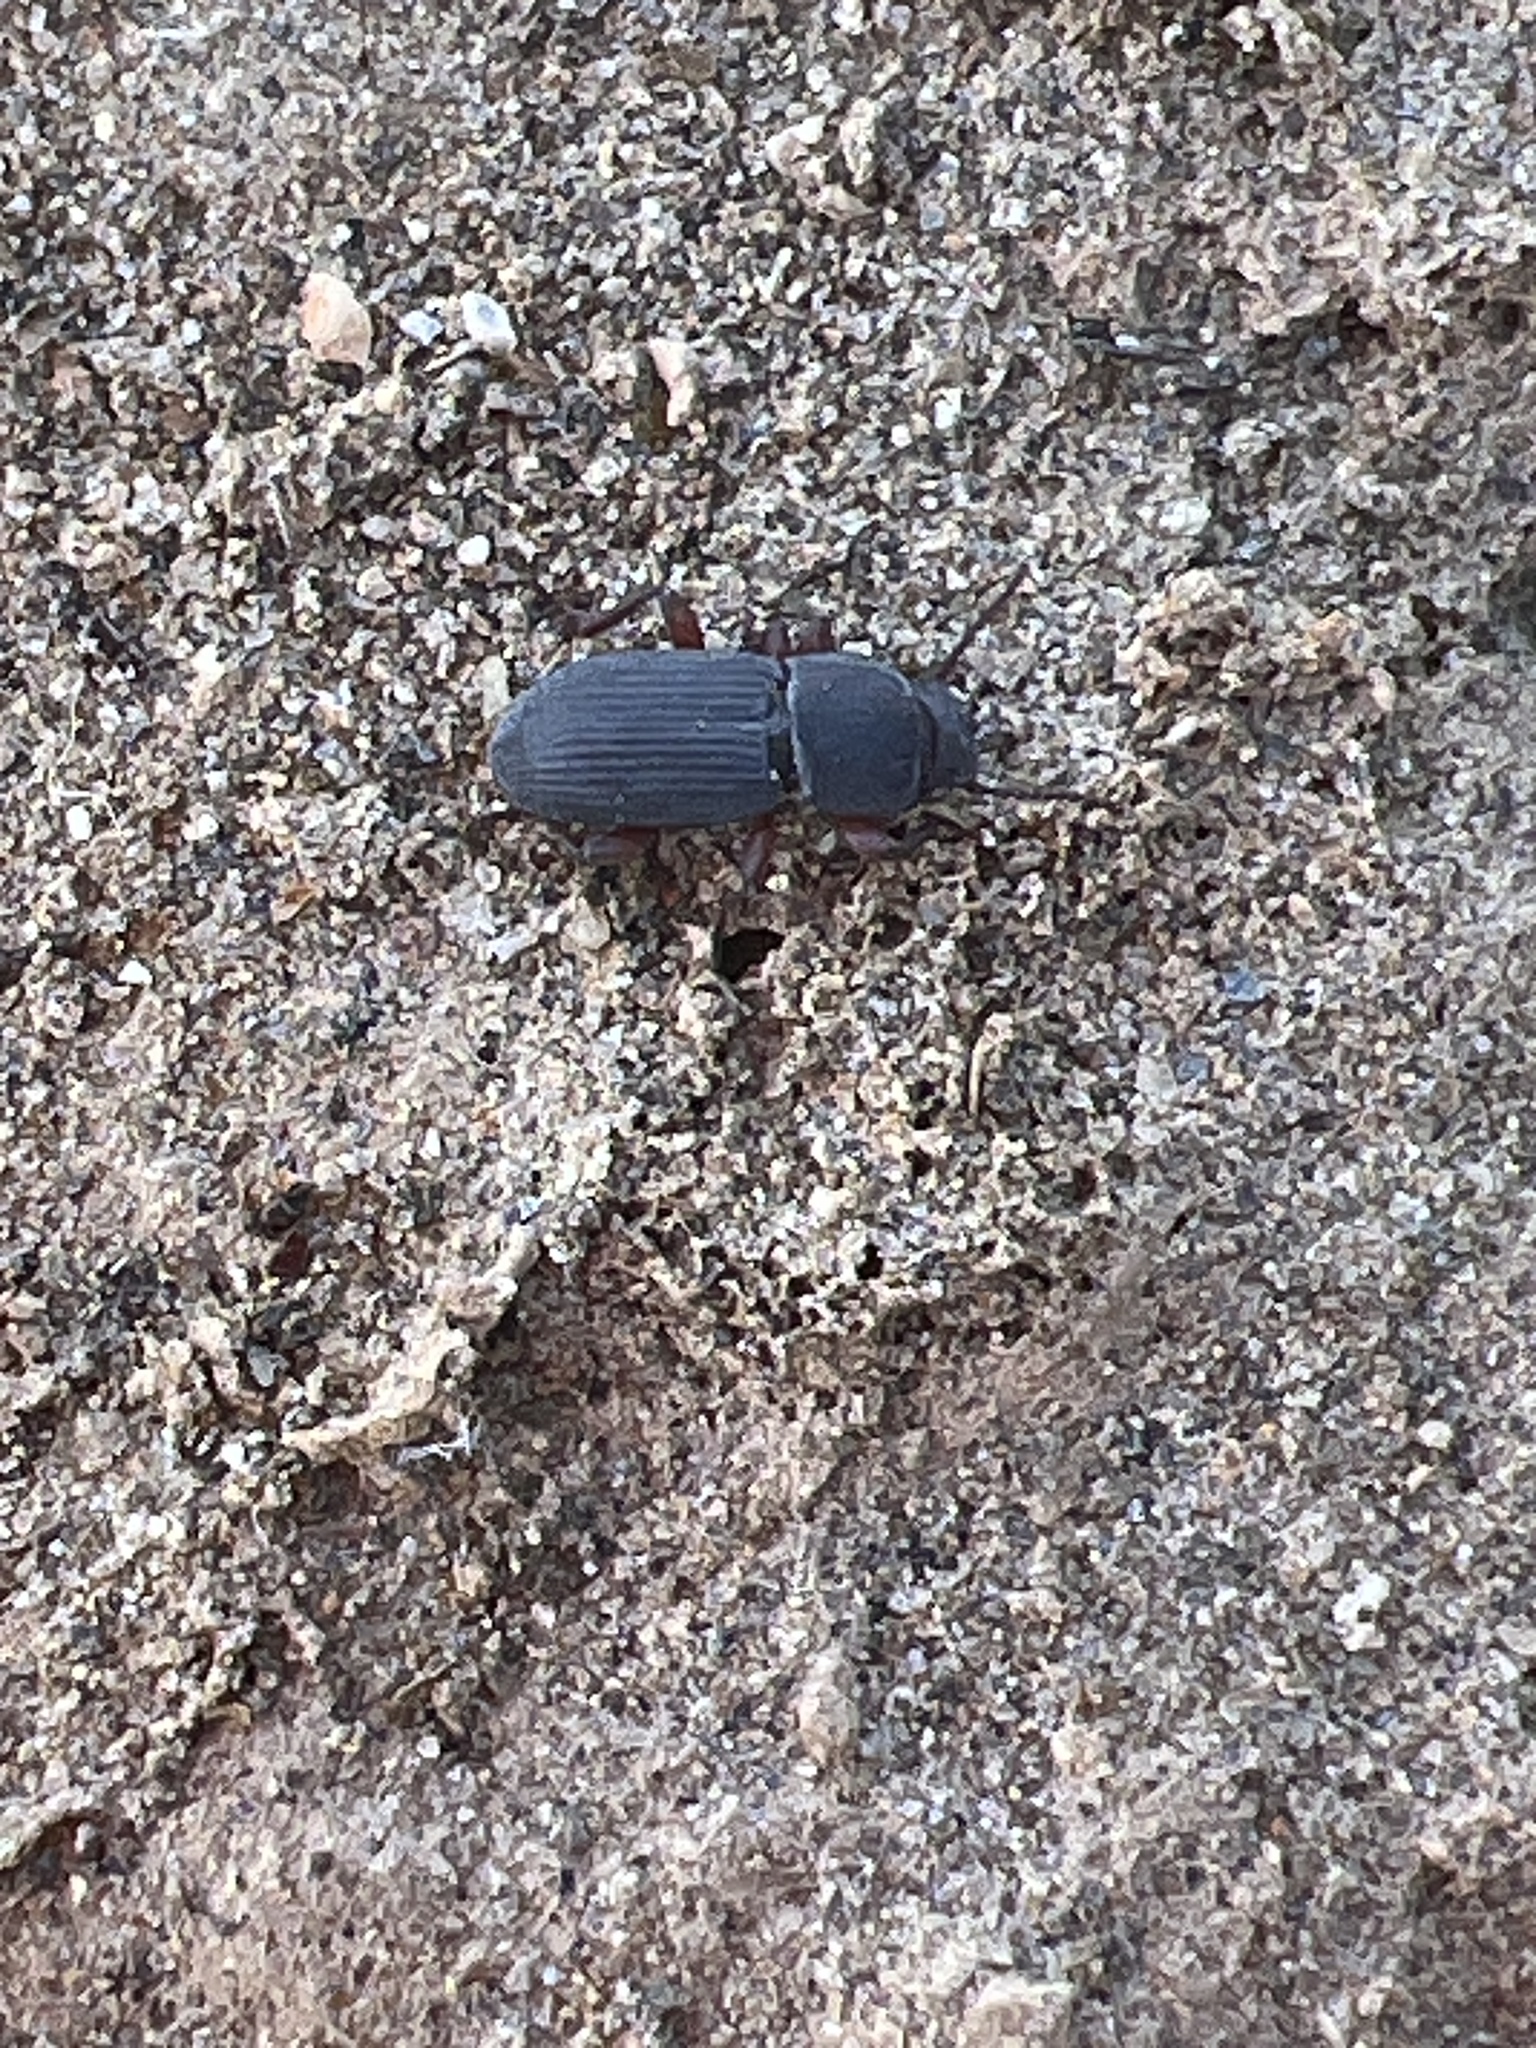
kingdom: Animalia
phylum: Arthropoda
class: Insecta
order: Coleoptera
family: Tenebrionidae
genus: Apsena
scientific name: Apsena pubescens
